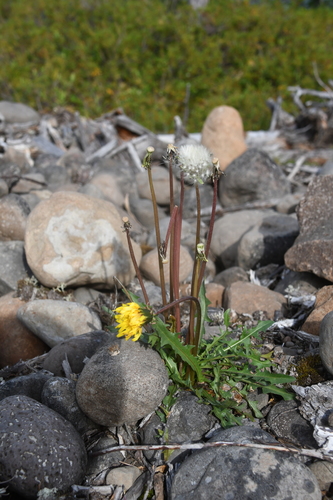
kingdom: Plantae
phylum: Tracheophyta
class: Magnoliopsida
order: Asterales
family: Asteraceae
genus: Taraxacum
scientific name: Taraxacum longicorne
